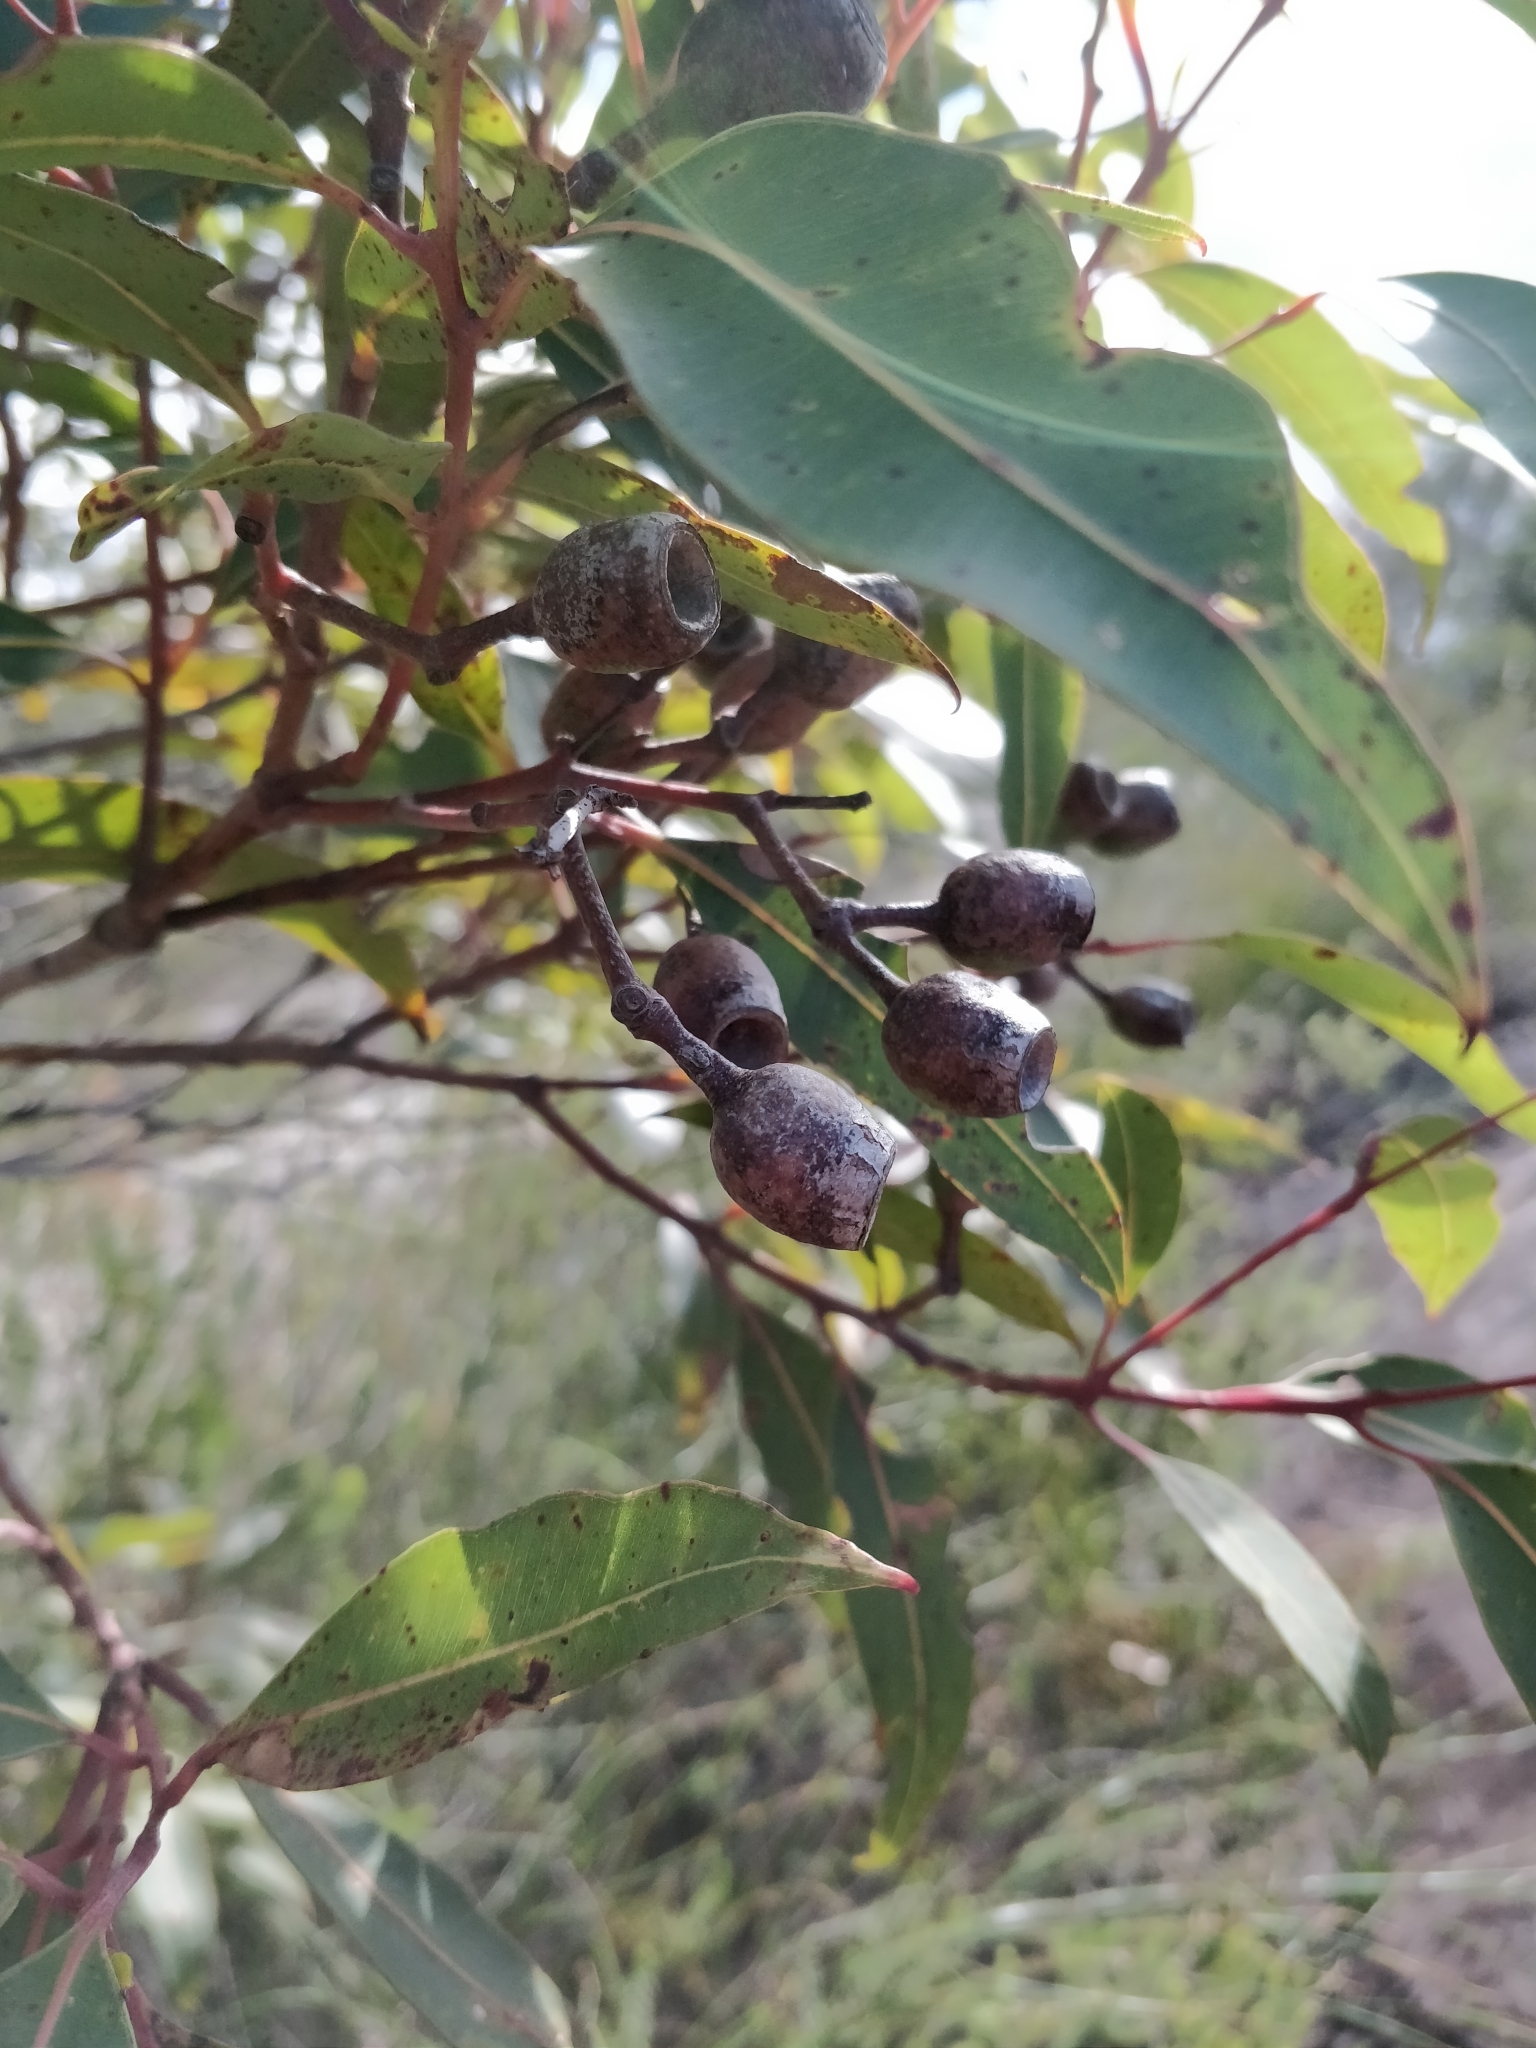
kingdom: Plantae
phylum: Tracheophyta
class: Magnoliopsida
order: Myrtales
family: Myrtaceae
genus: Corymbia
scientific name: Corymbia gummifera
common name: Red bloodwood
